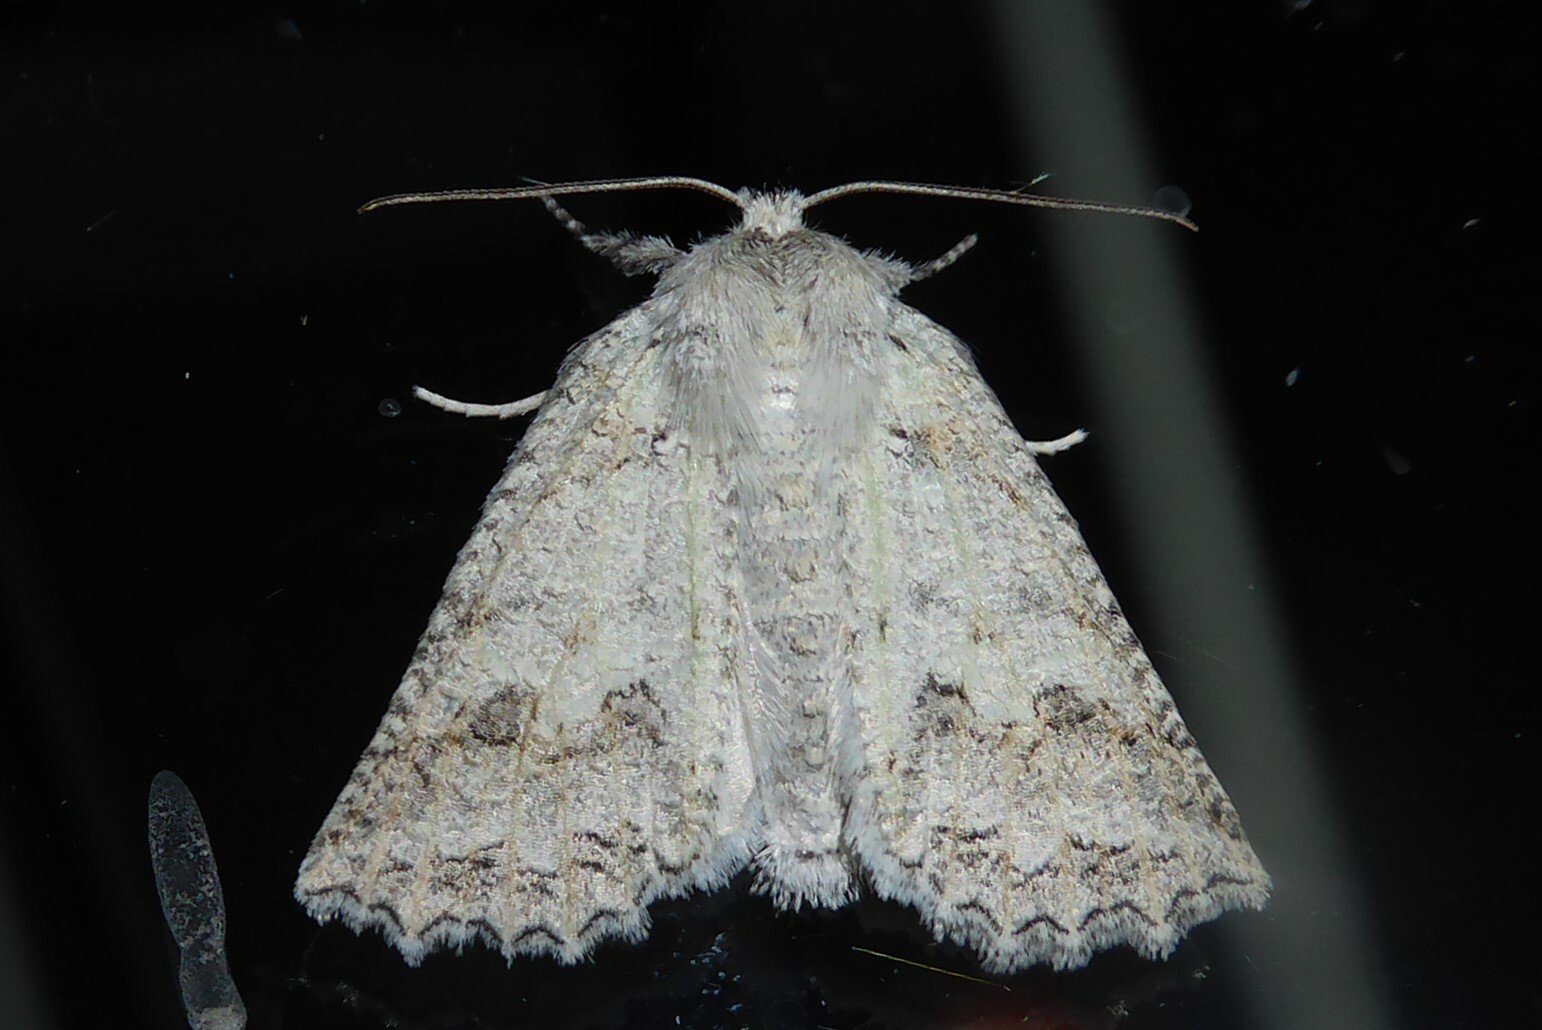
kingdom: Animalia
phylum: Arthropoda
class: Insecta
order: Lepidoptera
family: Geometridae
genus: Declana
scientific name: Declana niveata
